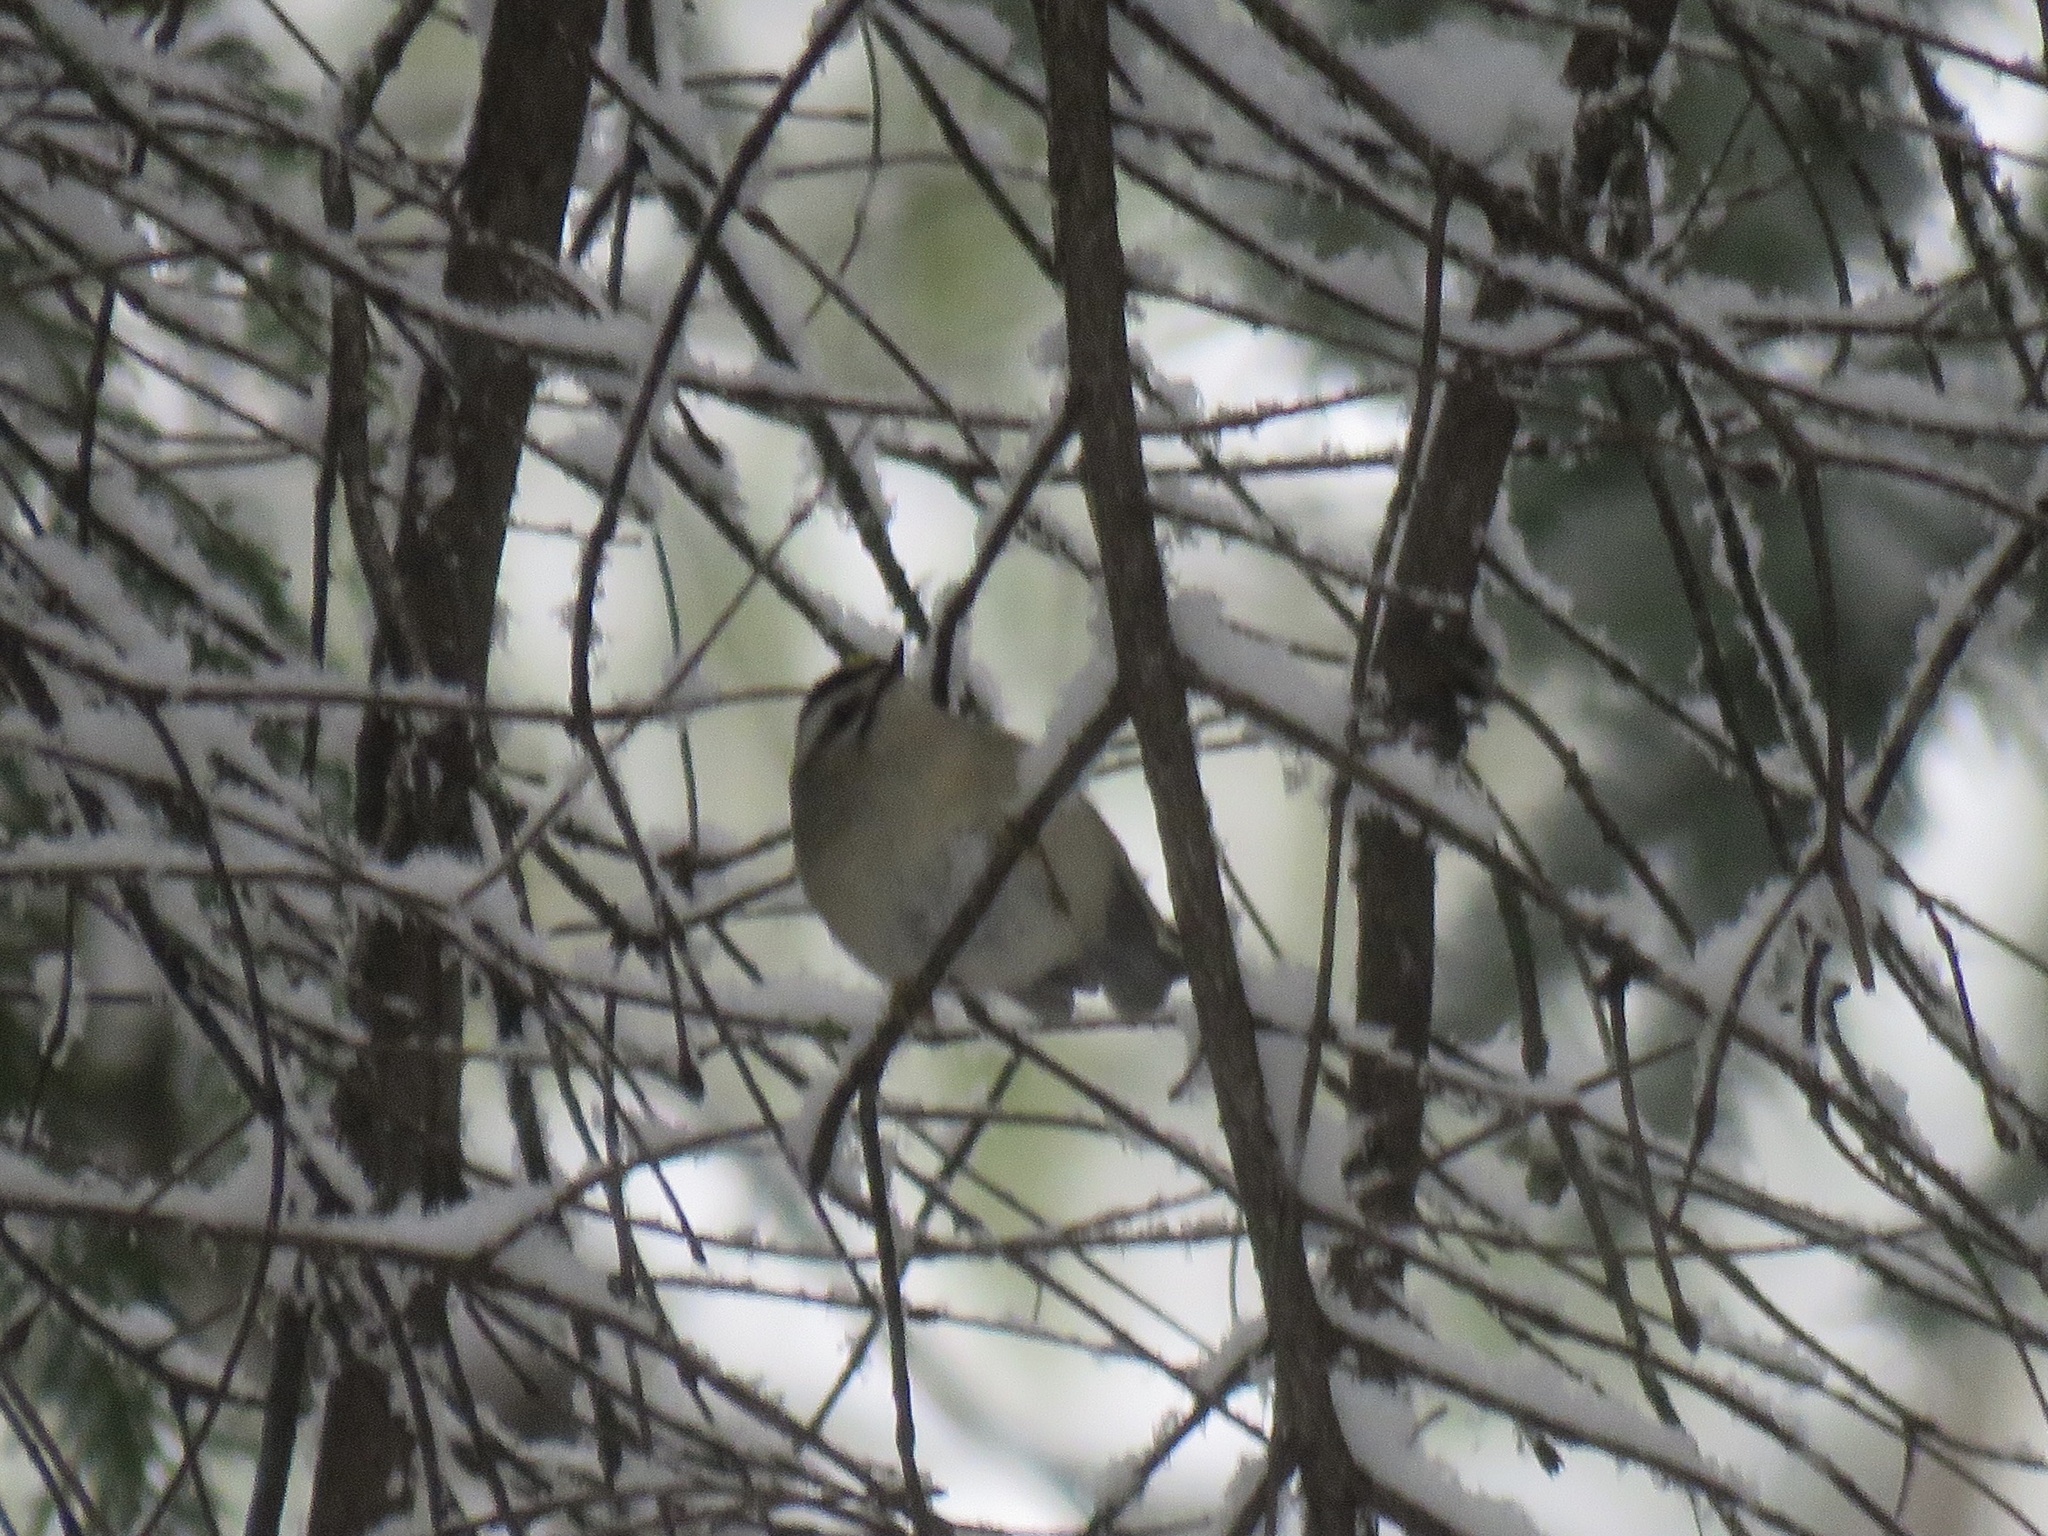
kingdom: Animalia
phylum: Chordata
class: Aves
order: Passeriformes
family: Regulidae
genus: Regulus
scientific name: Regulus satrapa
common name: Golden-crowned kinglet
